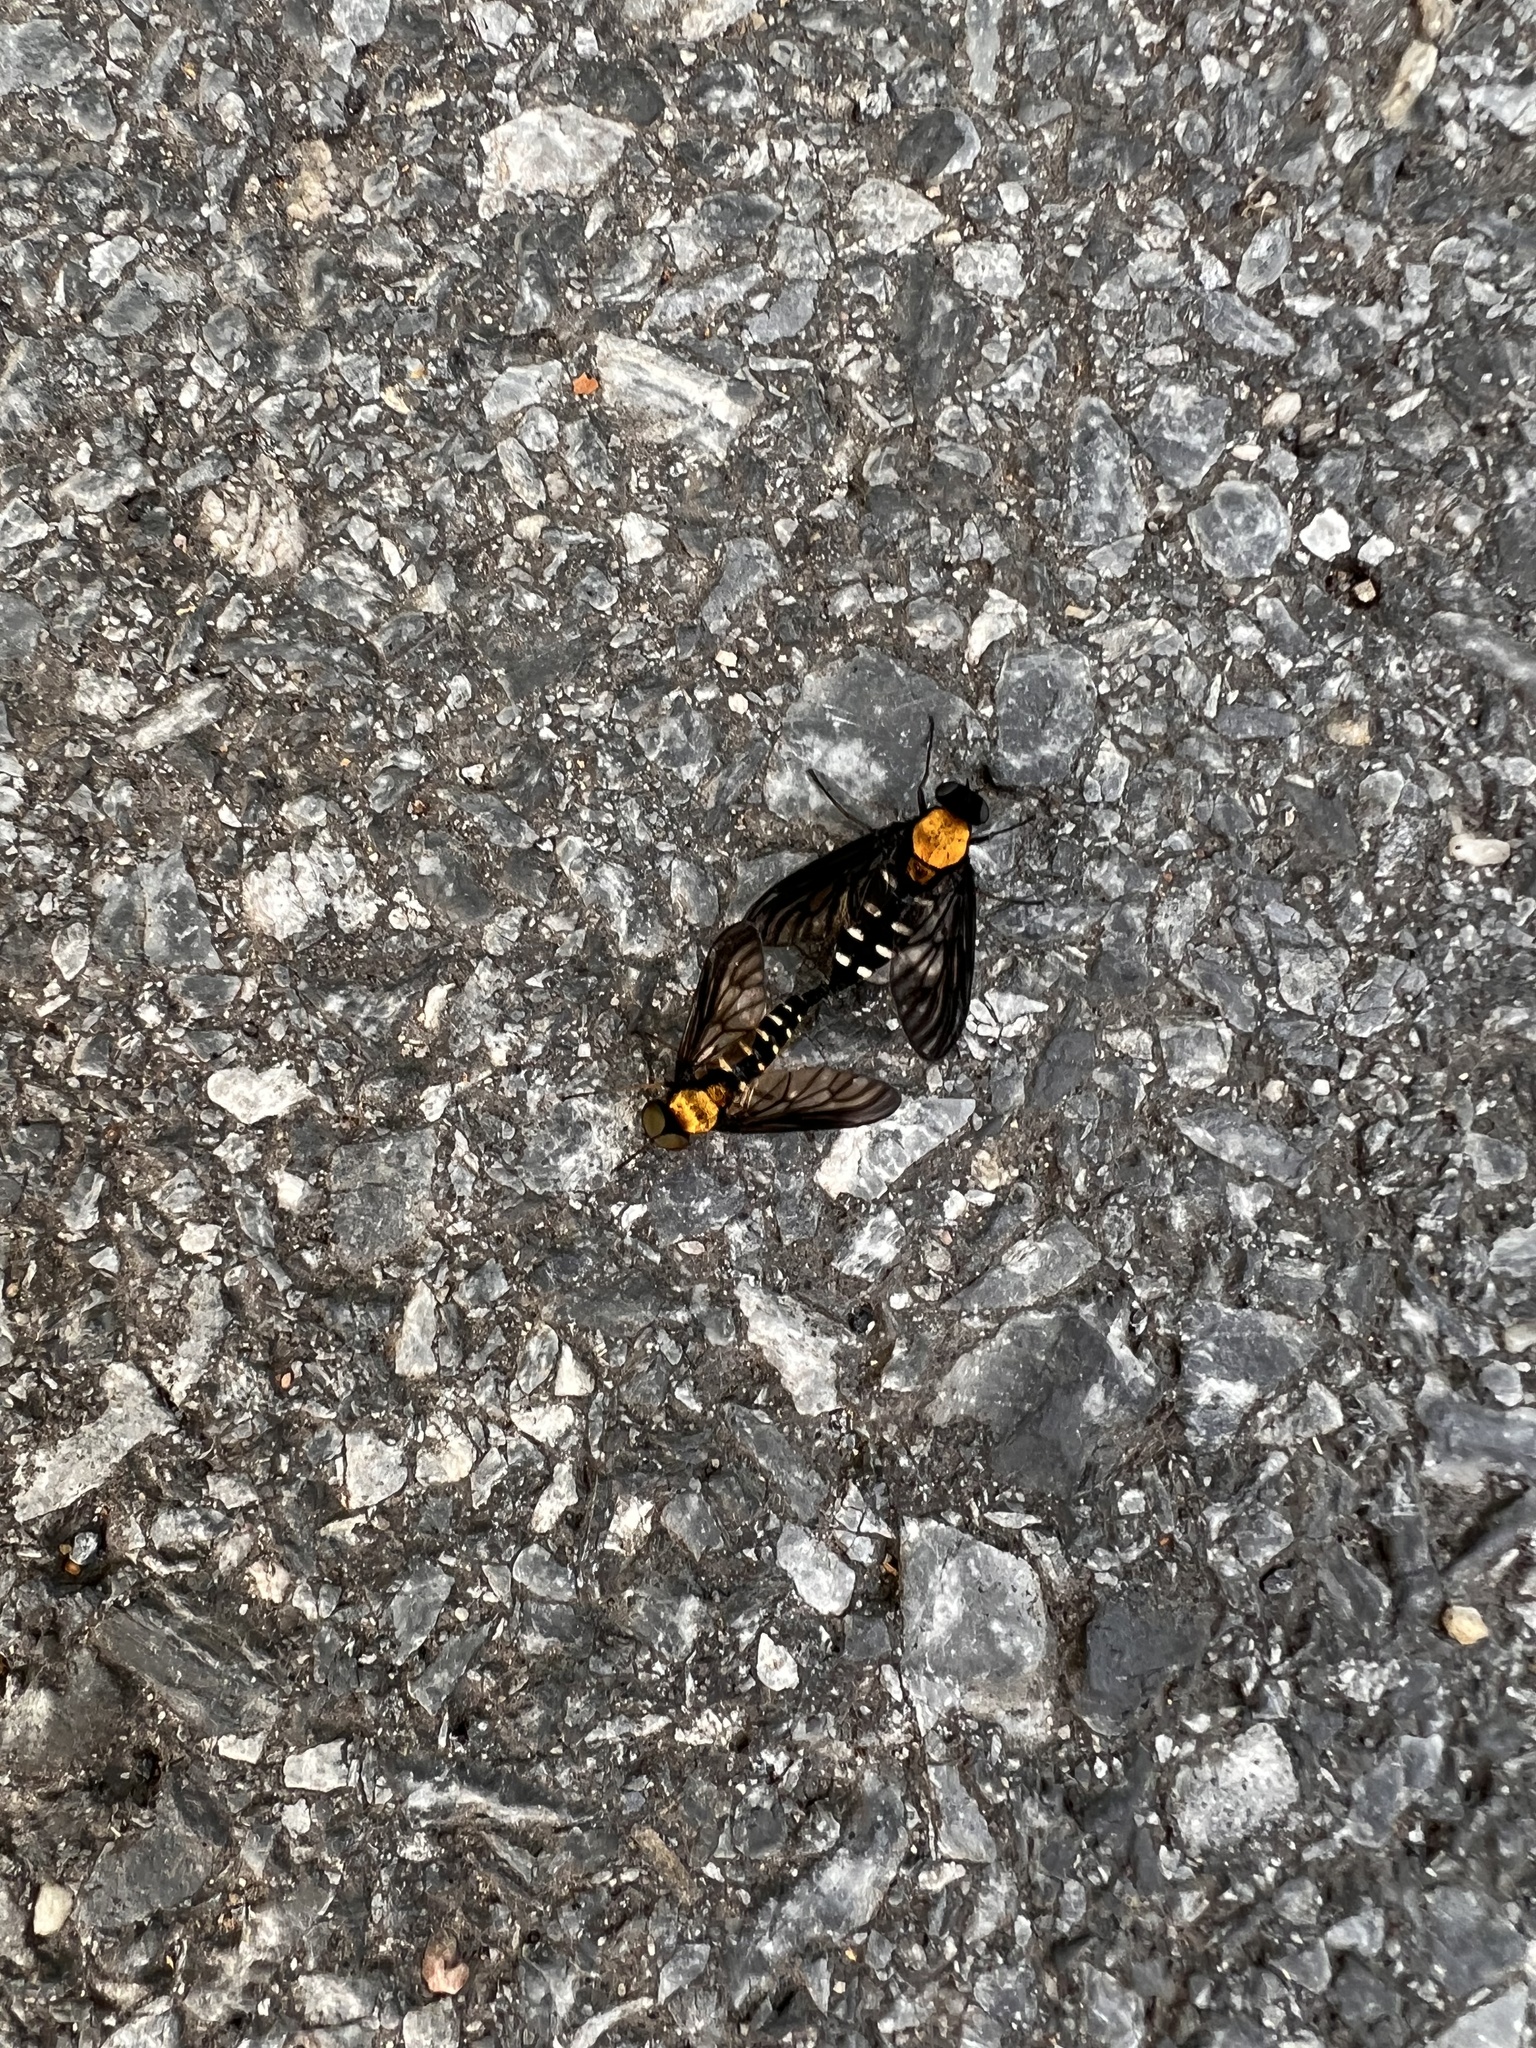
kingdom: Animalia
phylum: Arthropoda
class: Insecta
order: Diptera
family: Rhagionidae
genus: Chrysopilus
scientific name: Chrysopilus thoracicus
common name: Golden-backed snipe fly
